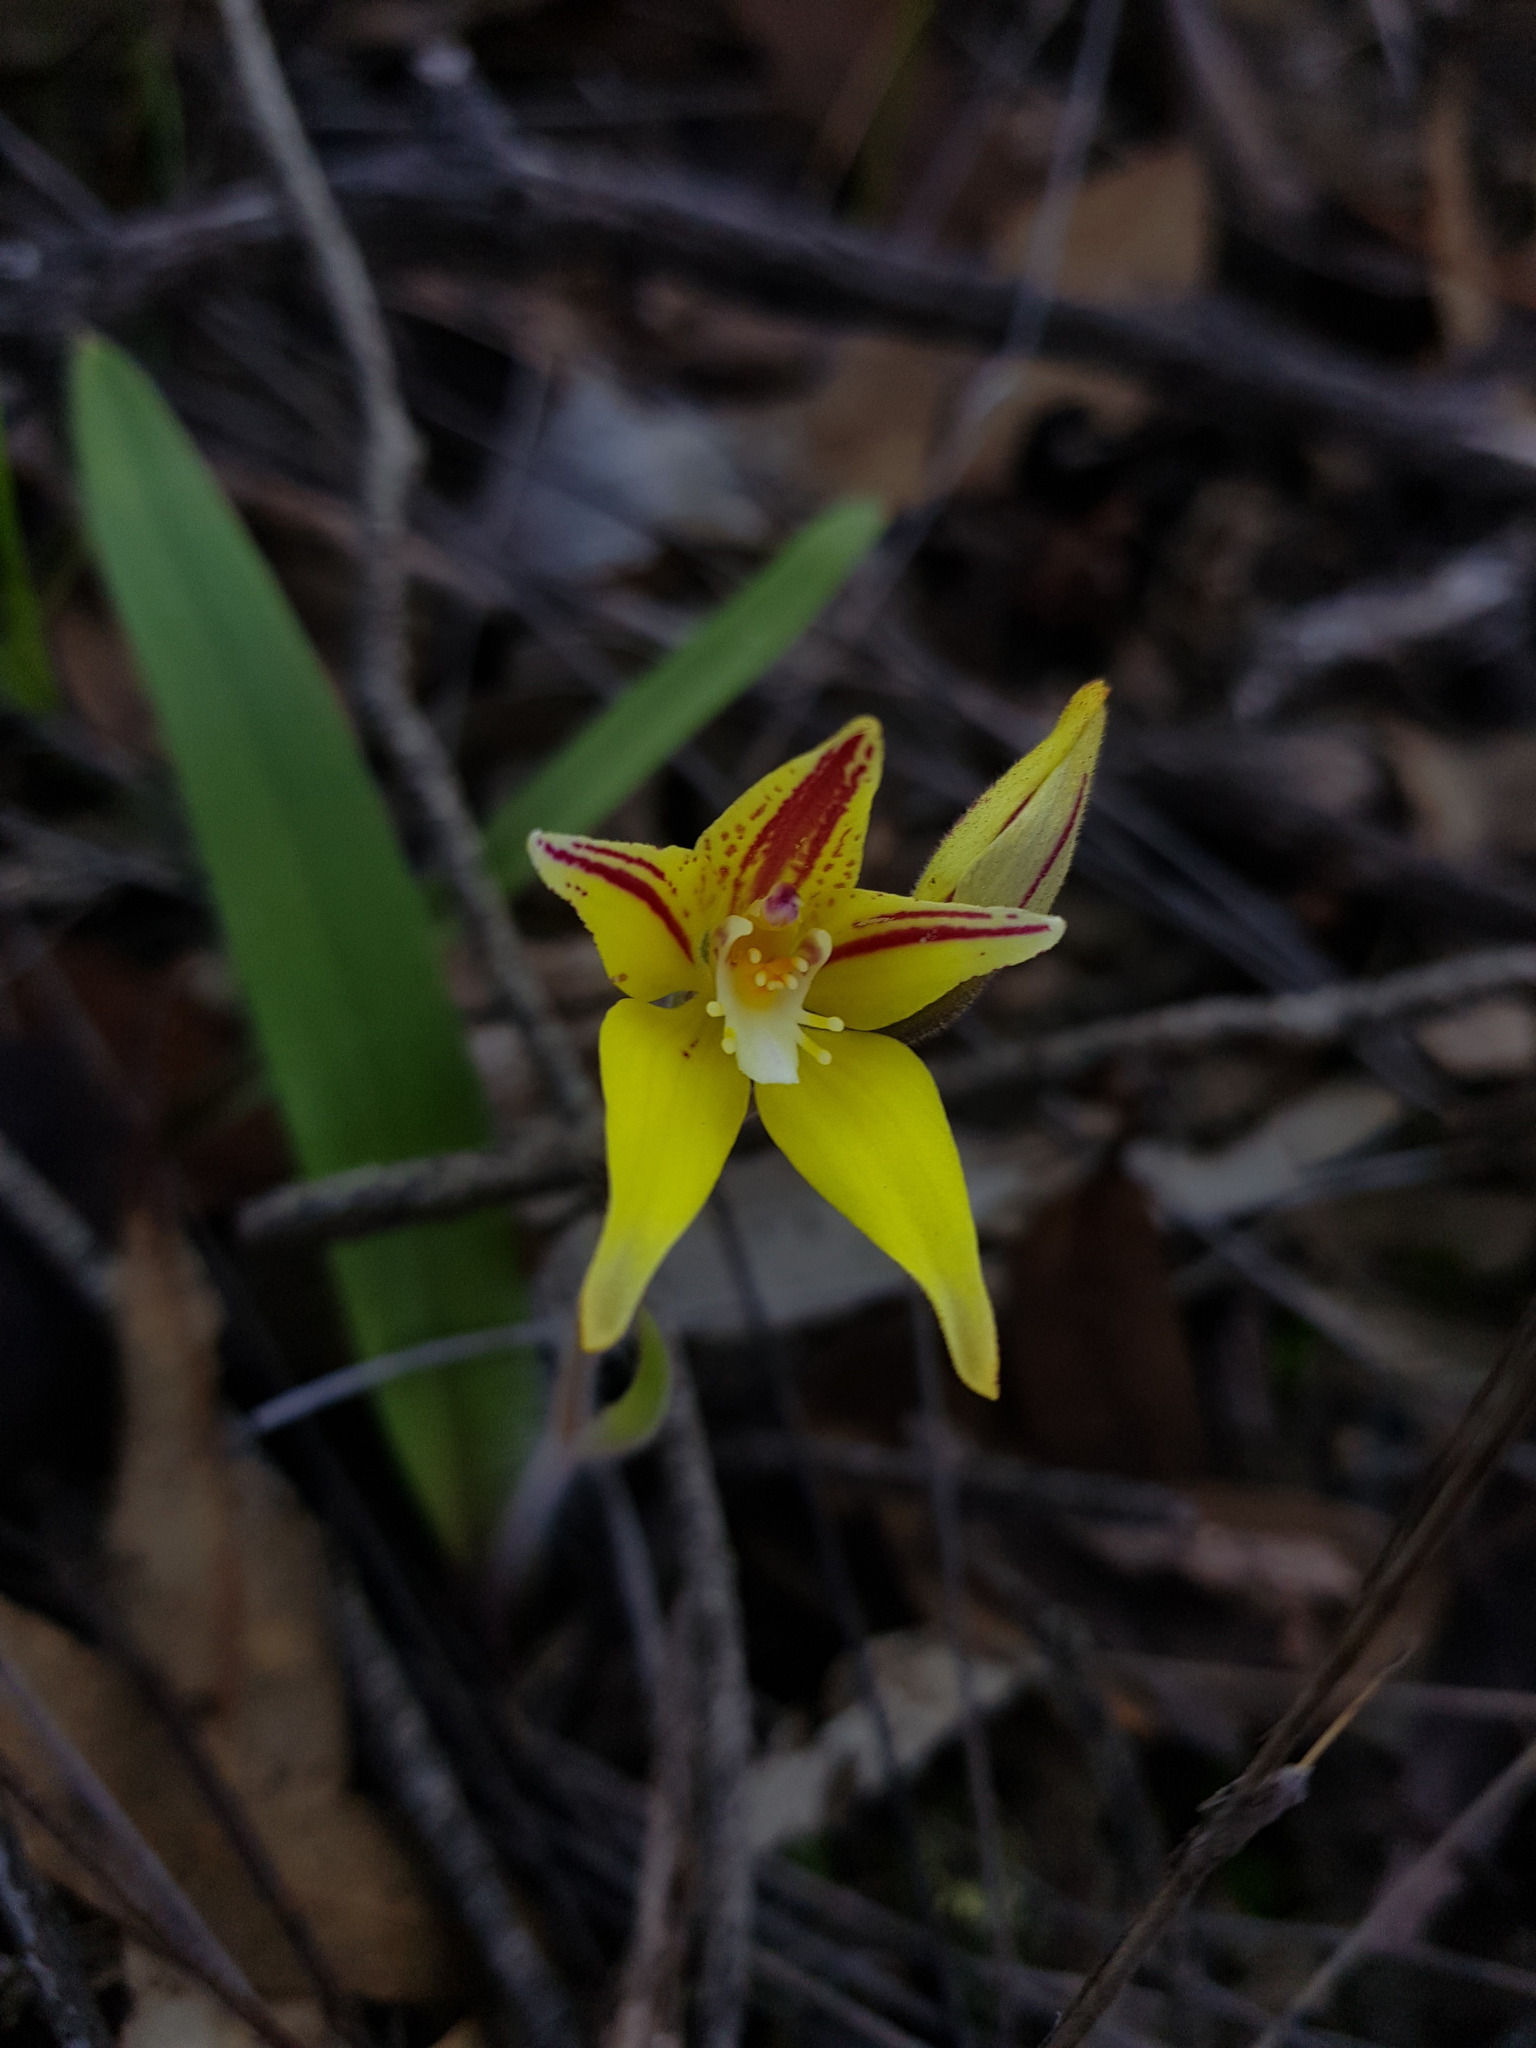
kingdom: Plantae
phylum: Tracheophyta
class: Liliopsida
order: Asparagales
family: Orchidaceae
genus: Caladenia
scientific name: Caladenia flava
